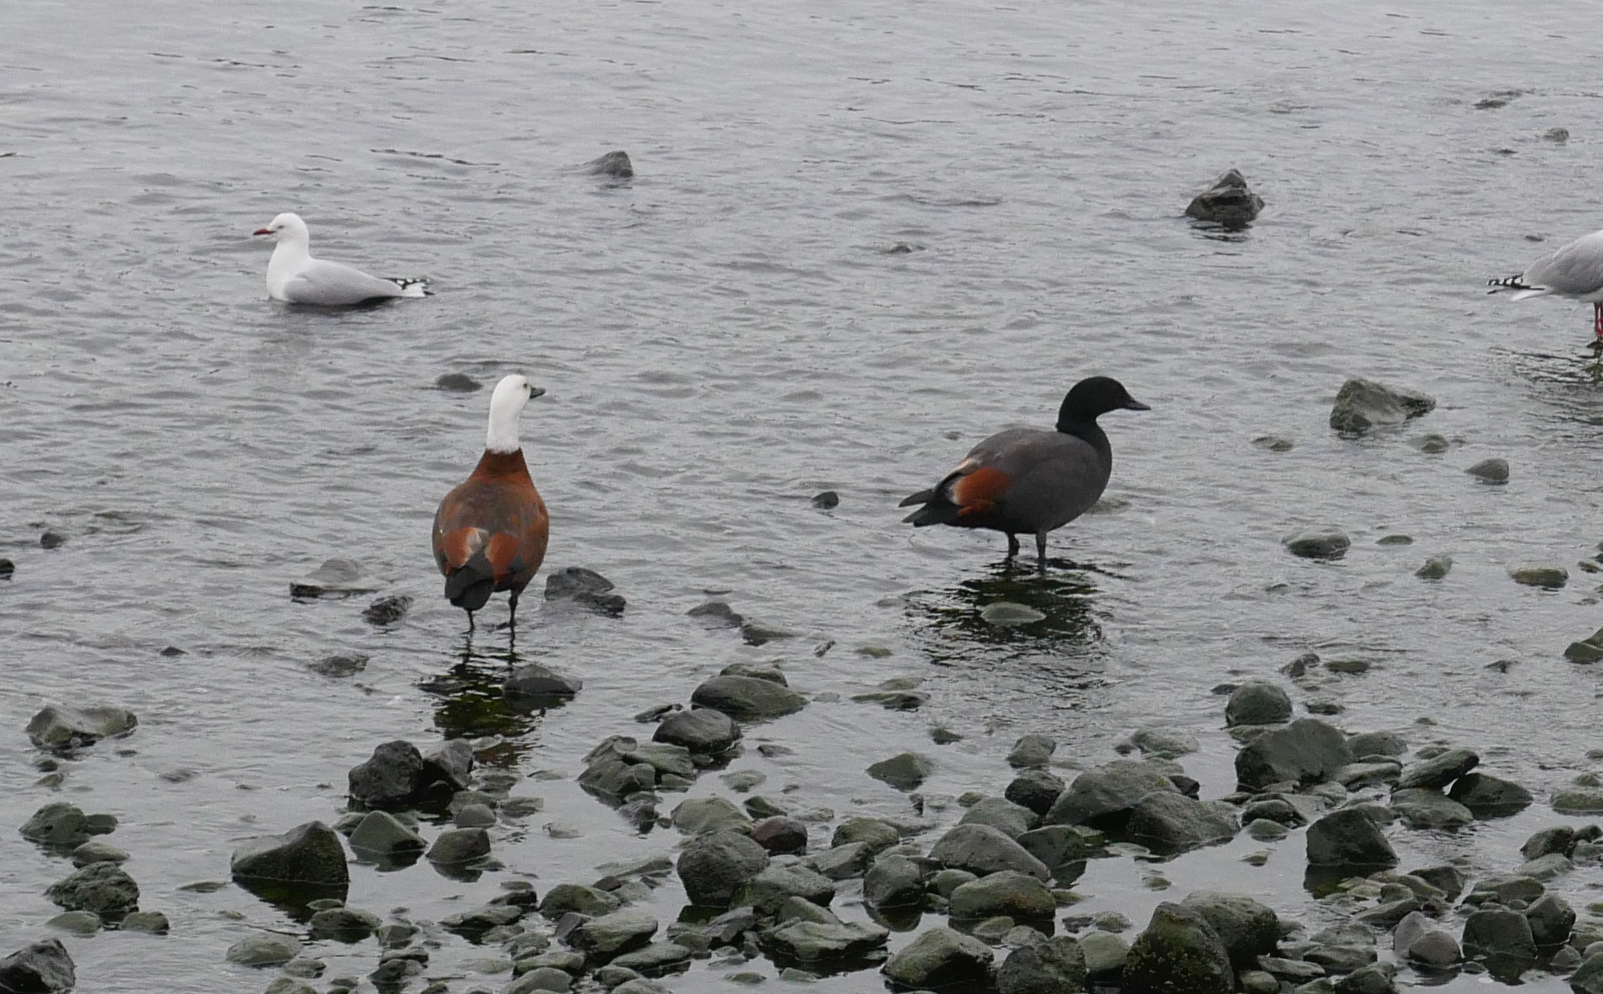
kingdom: Animalia
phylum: Chordata
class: Aves
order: Anseriformes
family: Anatidae
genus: Tadorna
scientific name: Tadorna variegata
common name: Paradise shelduck
